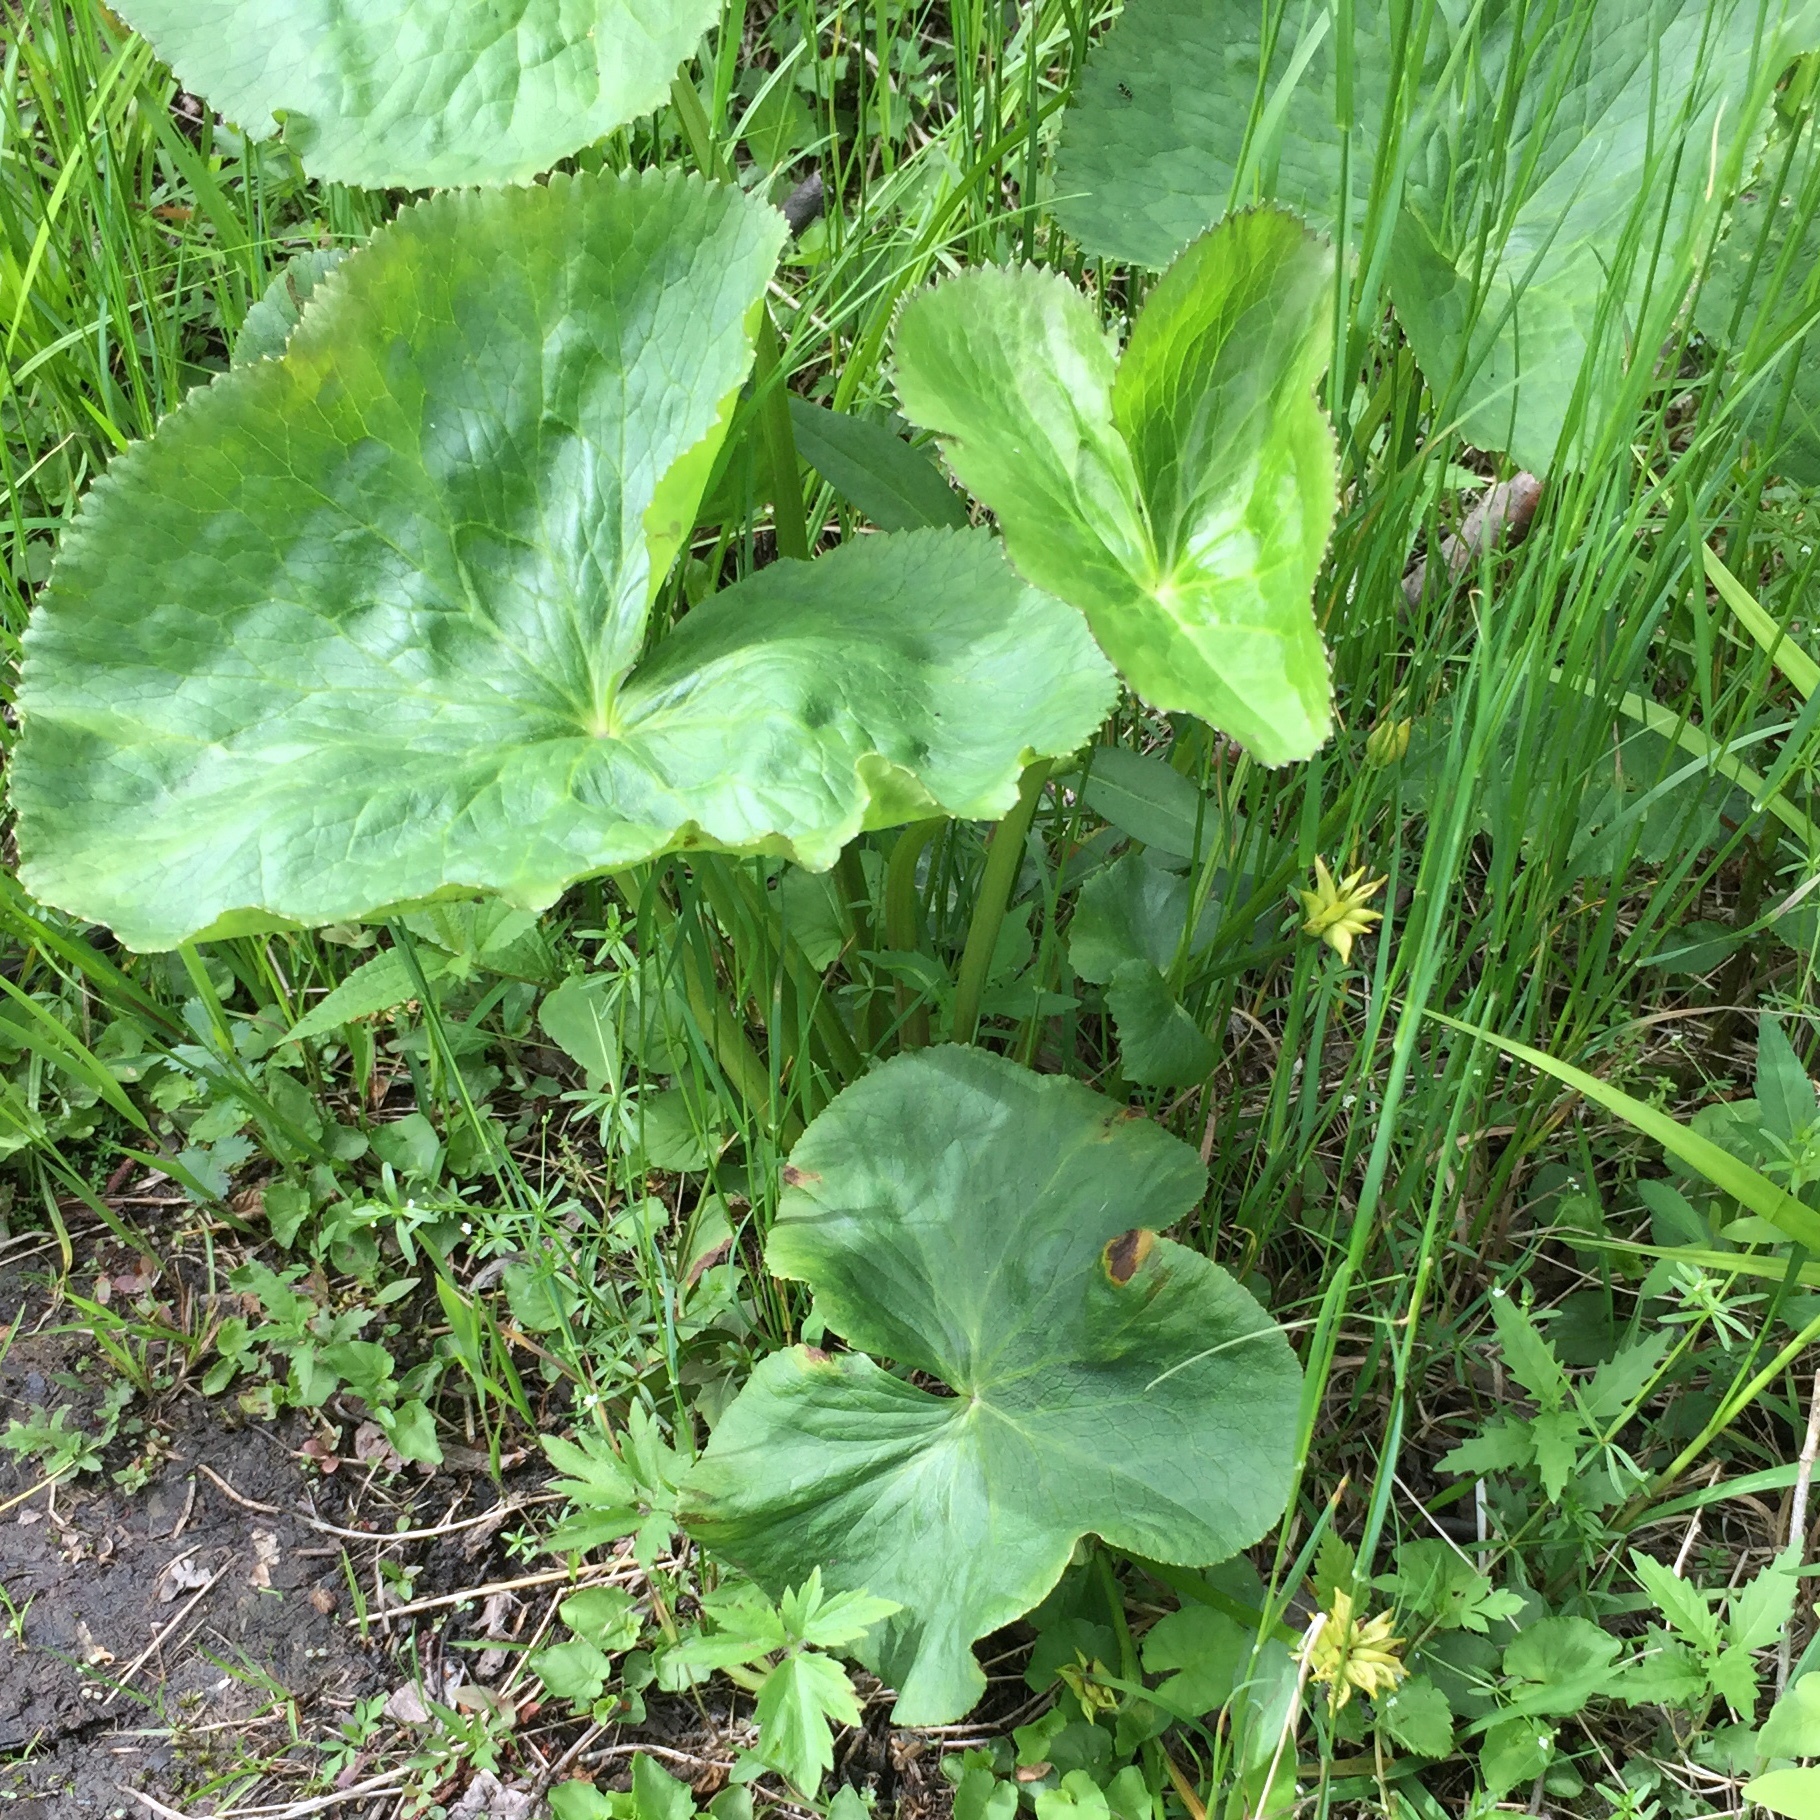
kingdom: Plantae
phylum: Tracheophyta
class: Magnoliopsida
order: Ranunculales
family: Ranunculaceae
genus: Caltha
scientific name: Caltha palustris
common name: Marsh marigold
